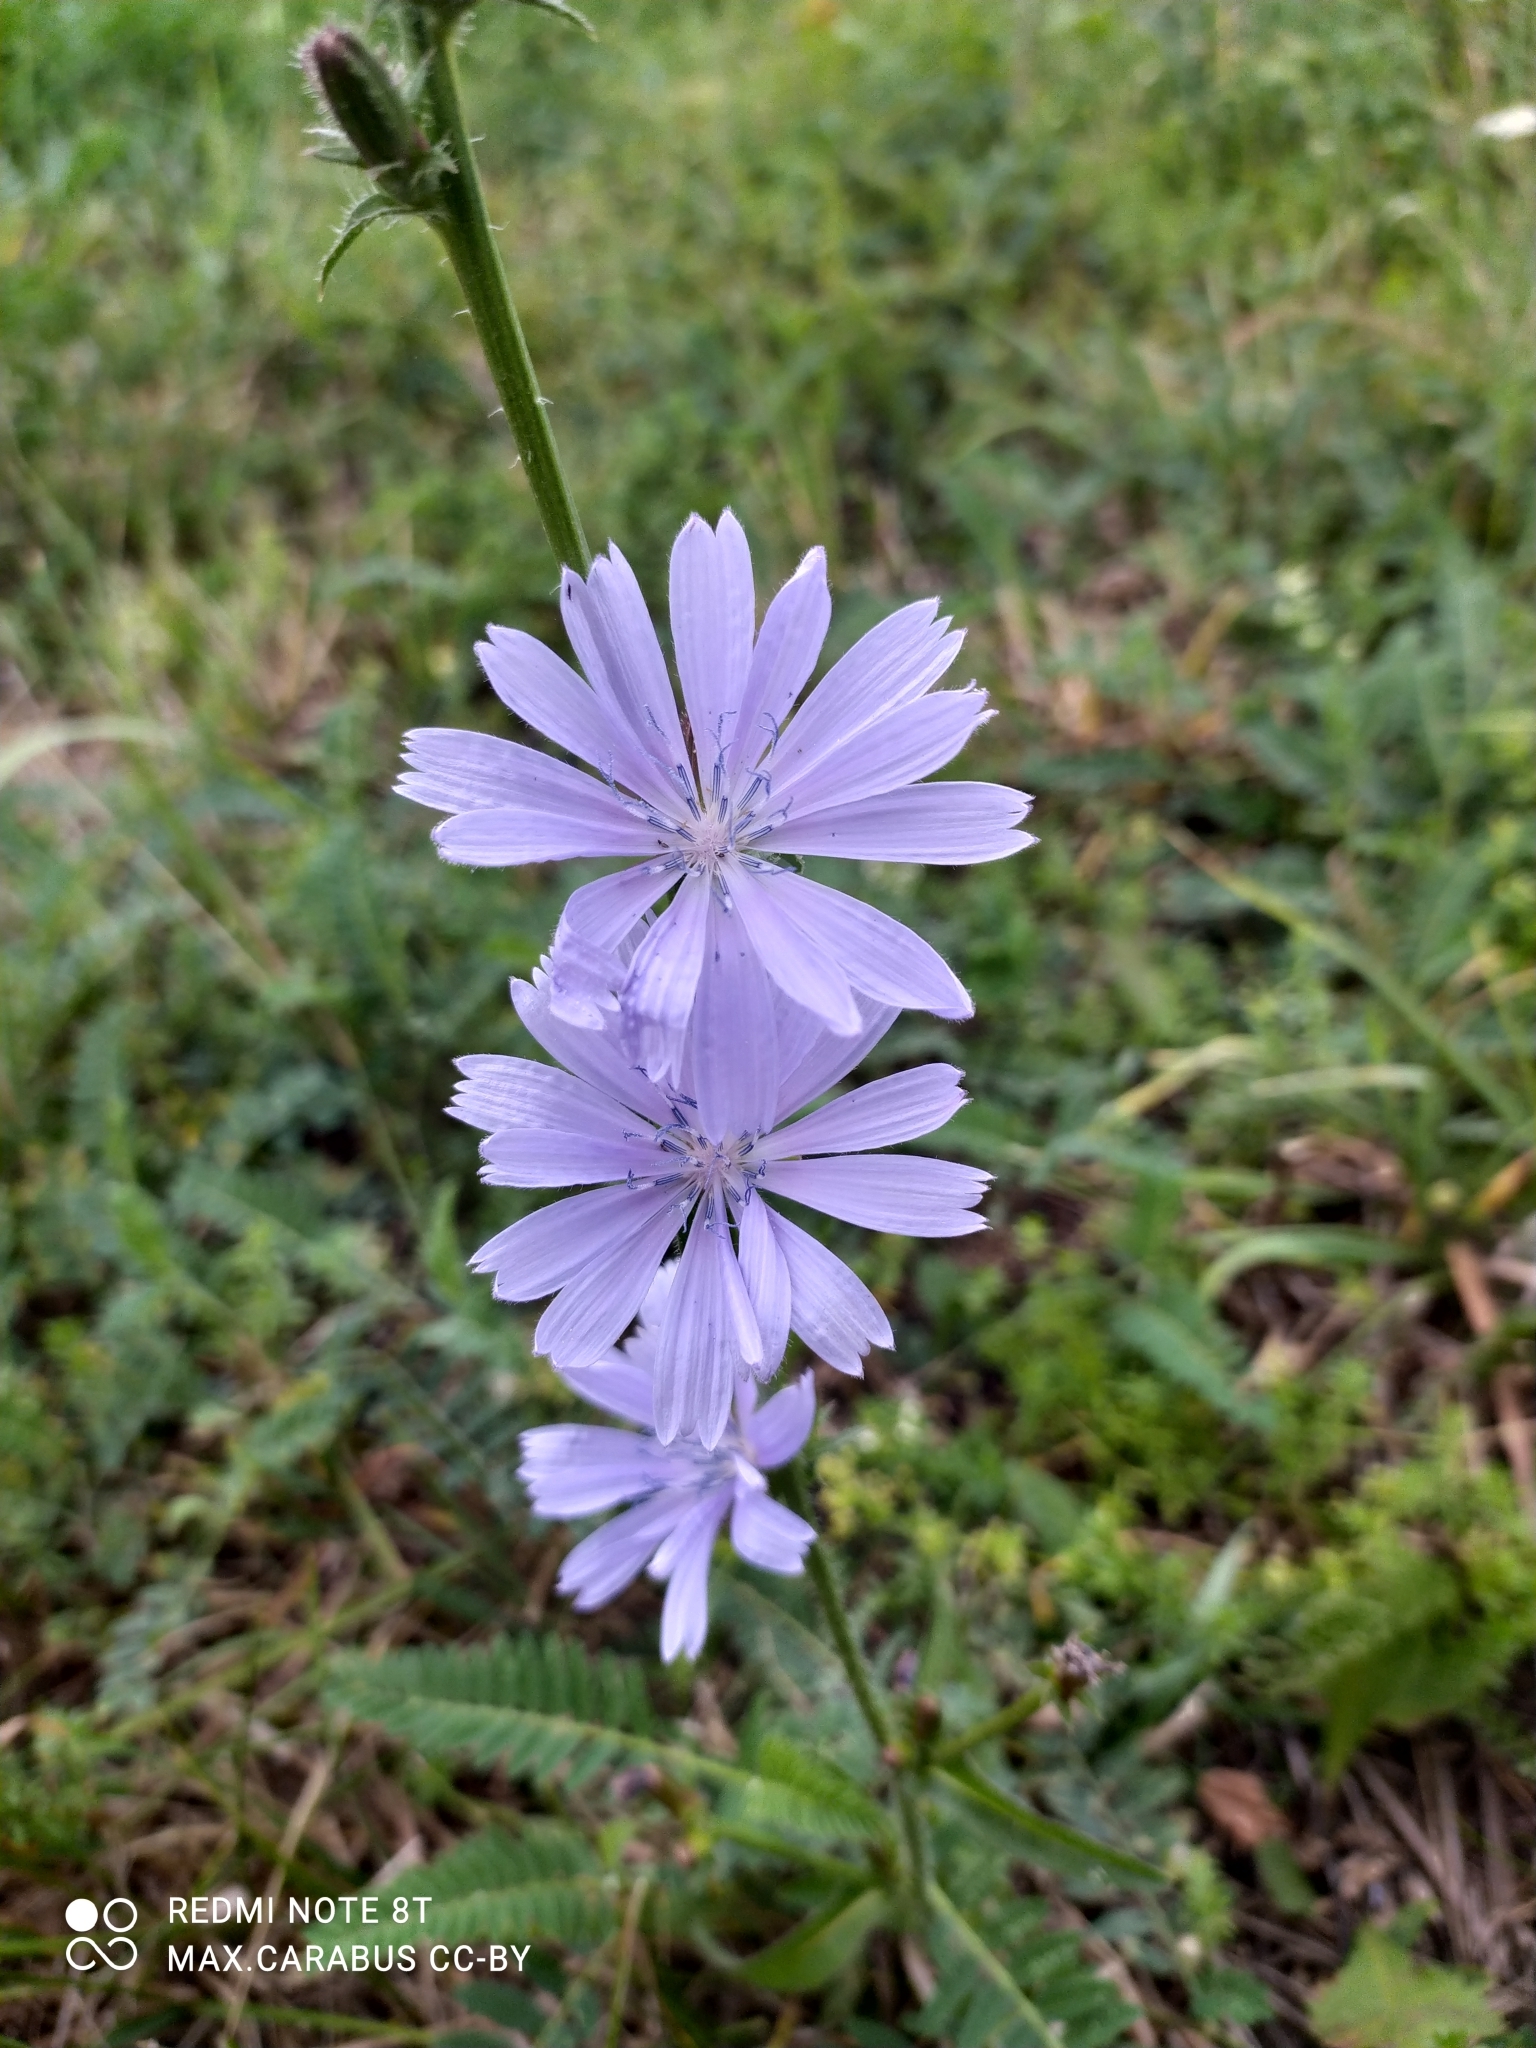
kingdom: Plantae
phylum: Tracheophyta
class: Magnoliopsida
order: Asterales
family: Asteraceae
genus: Cichorium
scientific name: Cichorium intybus
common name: Chicory
